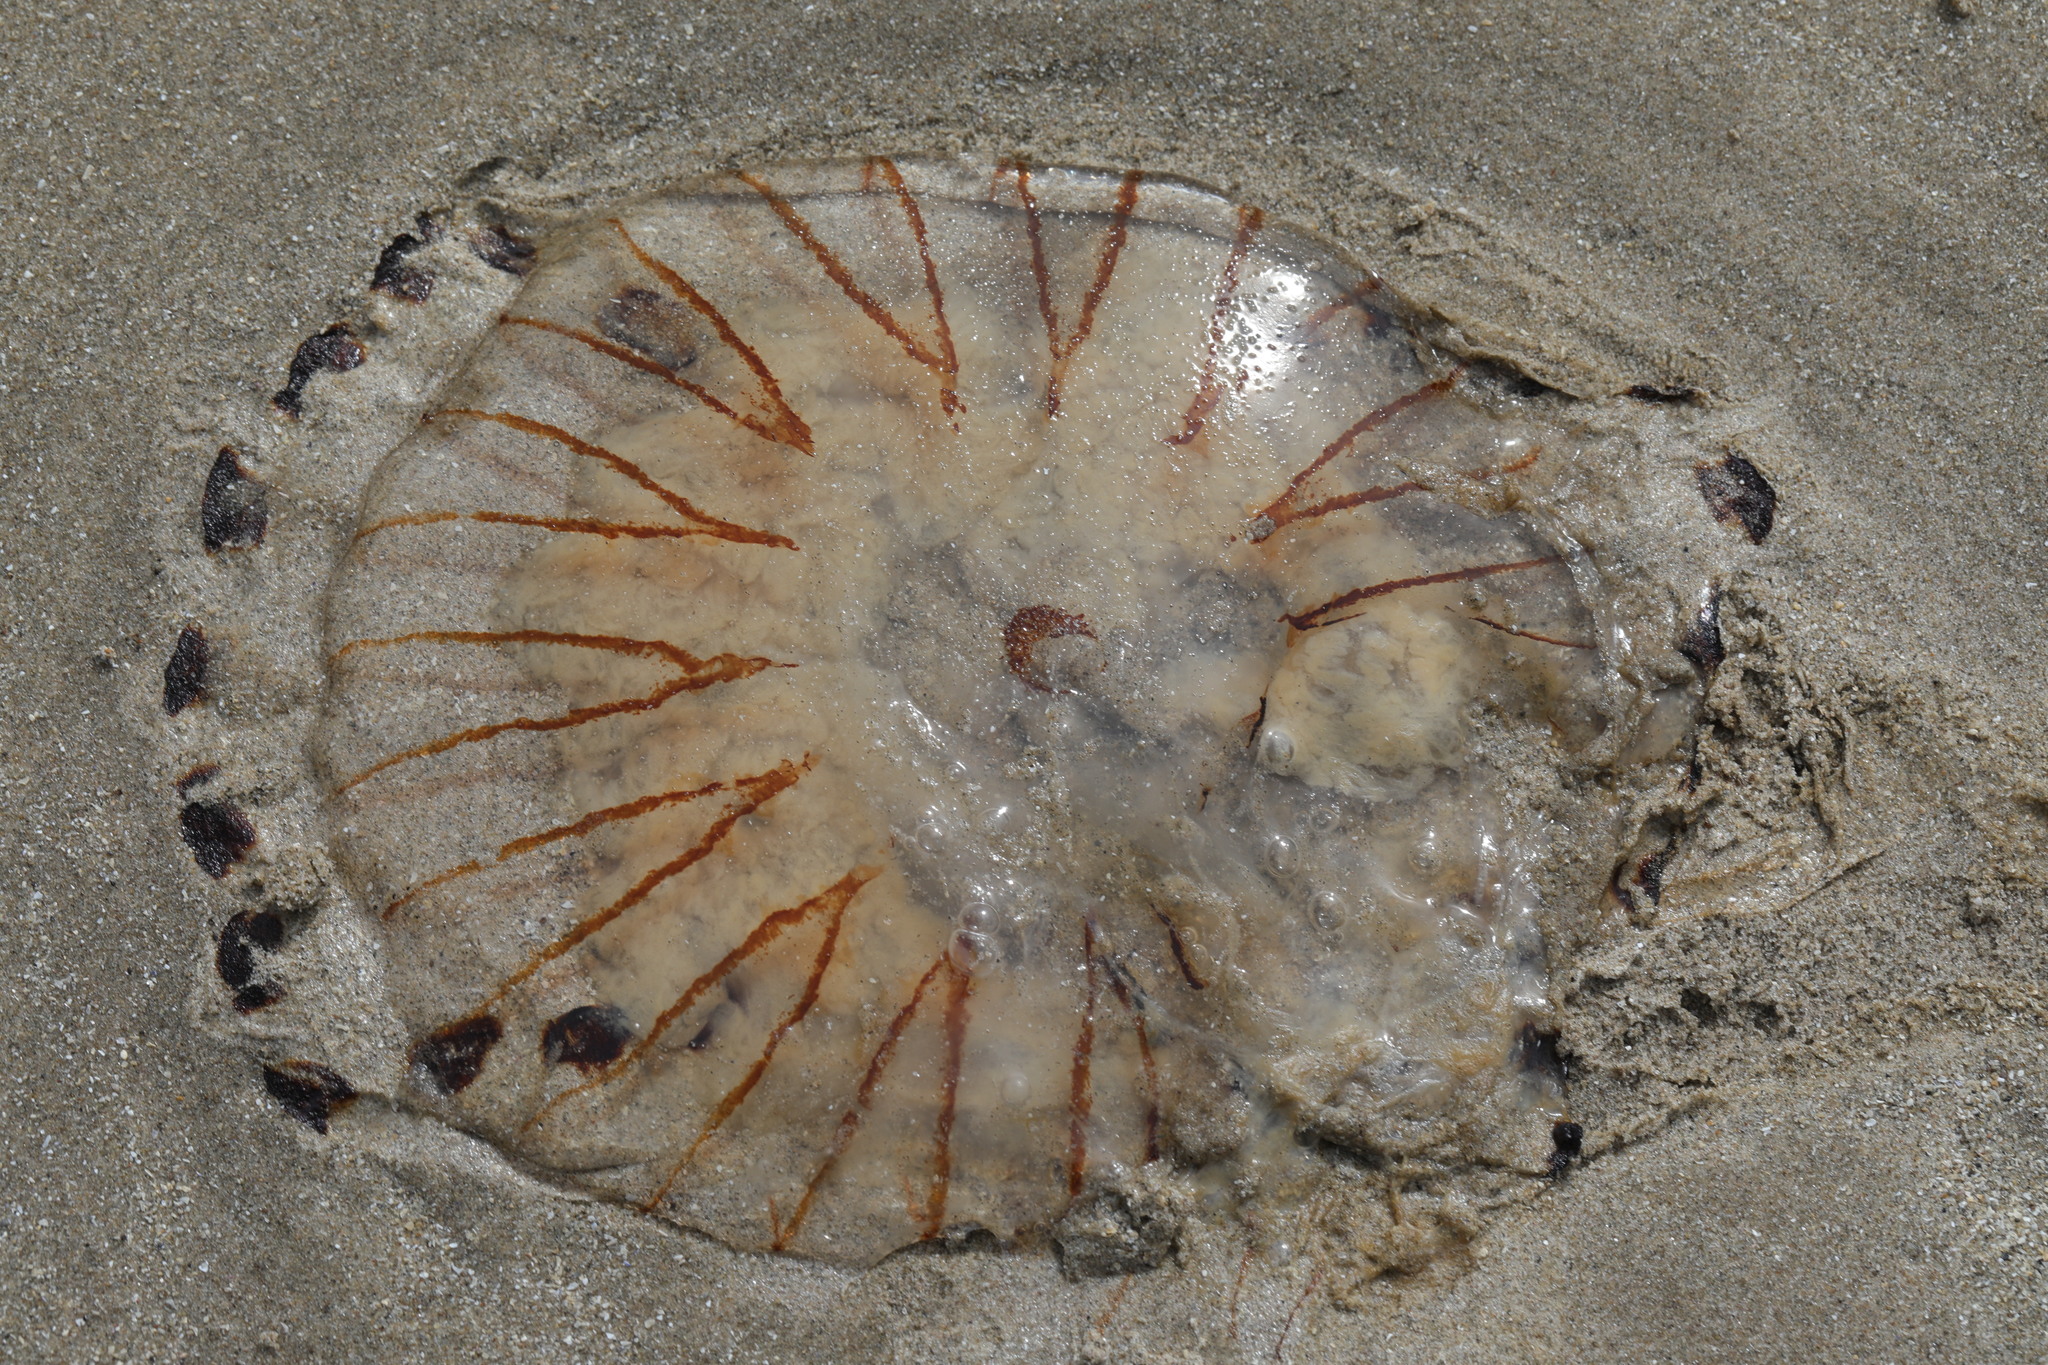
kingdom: Animalia
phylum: Cnidaria
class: Scyphozoa
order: Semaeostomeae
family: Pelagiidae
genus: Chrysaora
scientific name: Chrysaora hysoscella
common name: Compass jellyfish
